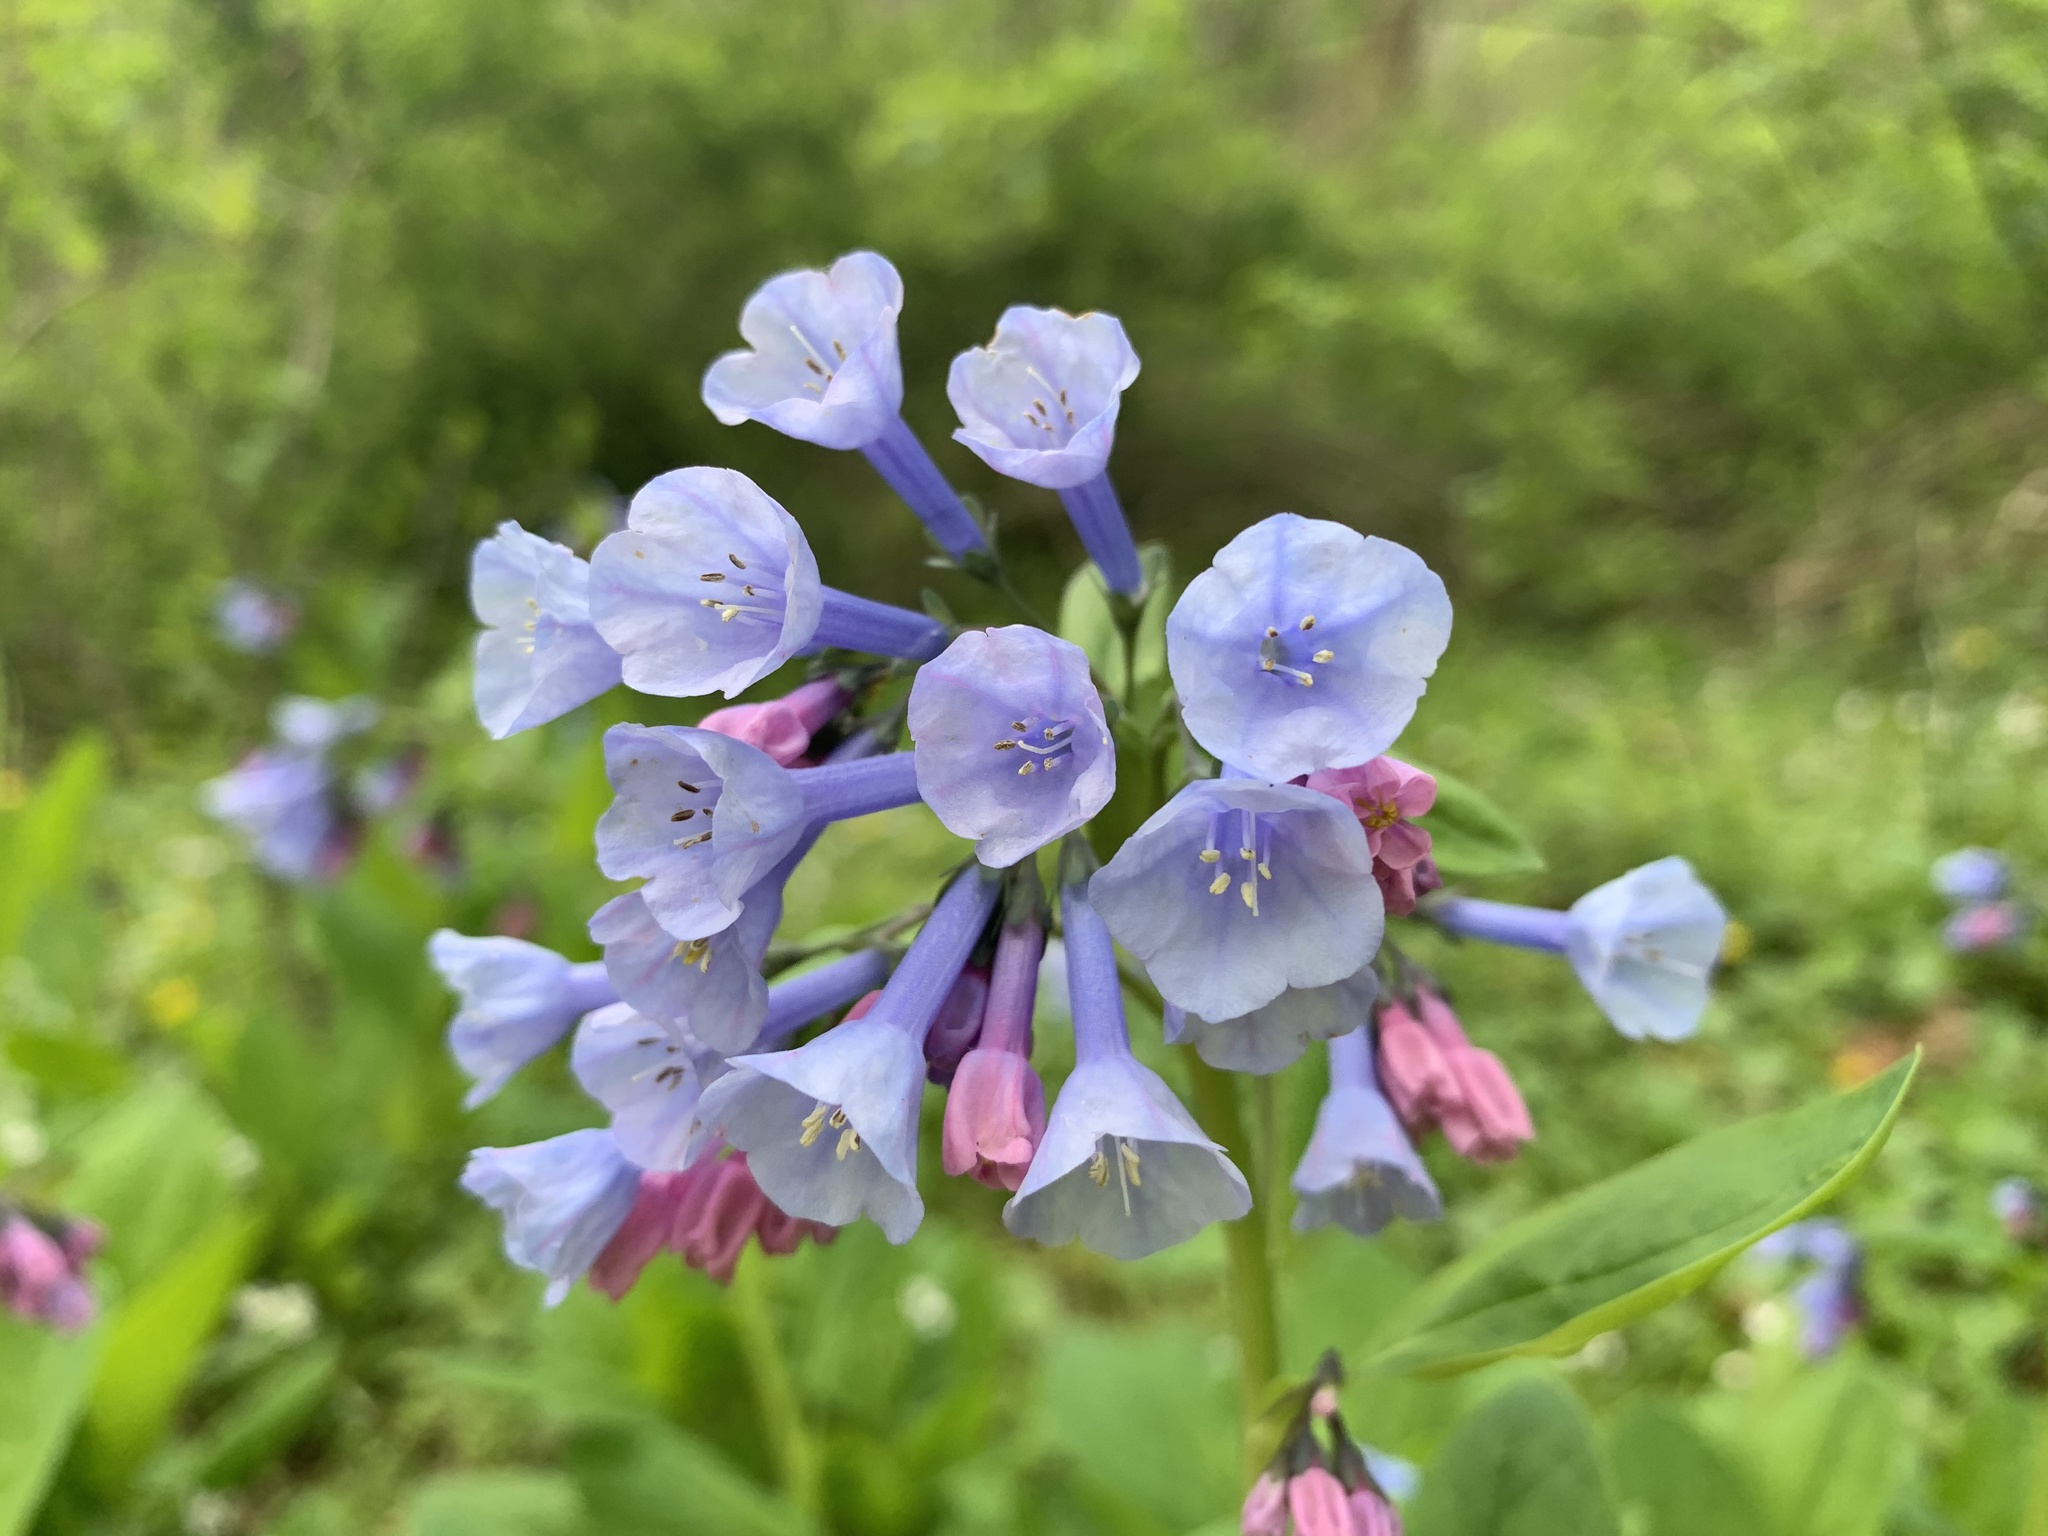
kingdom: Plantae
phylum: Tracheophyta
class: Magnoliopsida
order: Boraginales
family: Boraginaceae
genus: Mertensia
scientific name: Mertensia virginica
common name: Virginia bluebells
